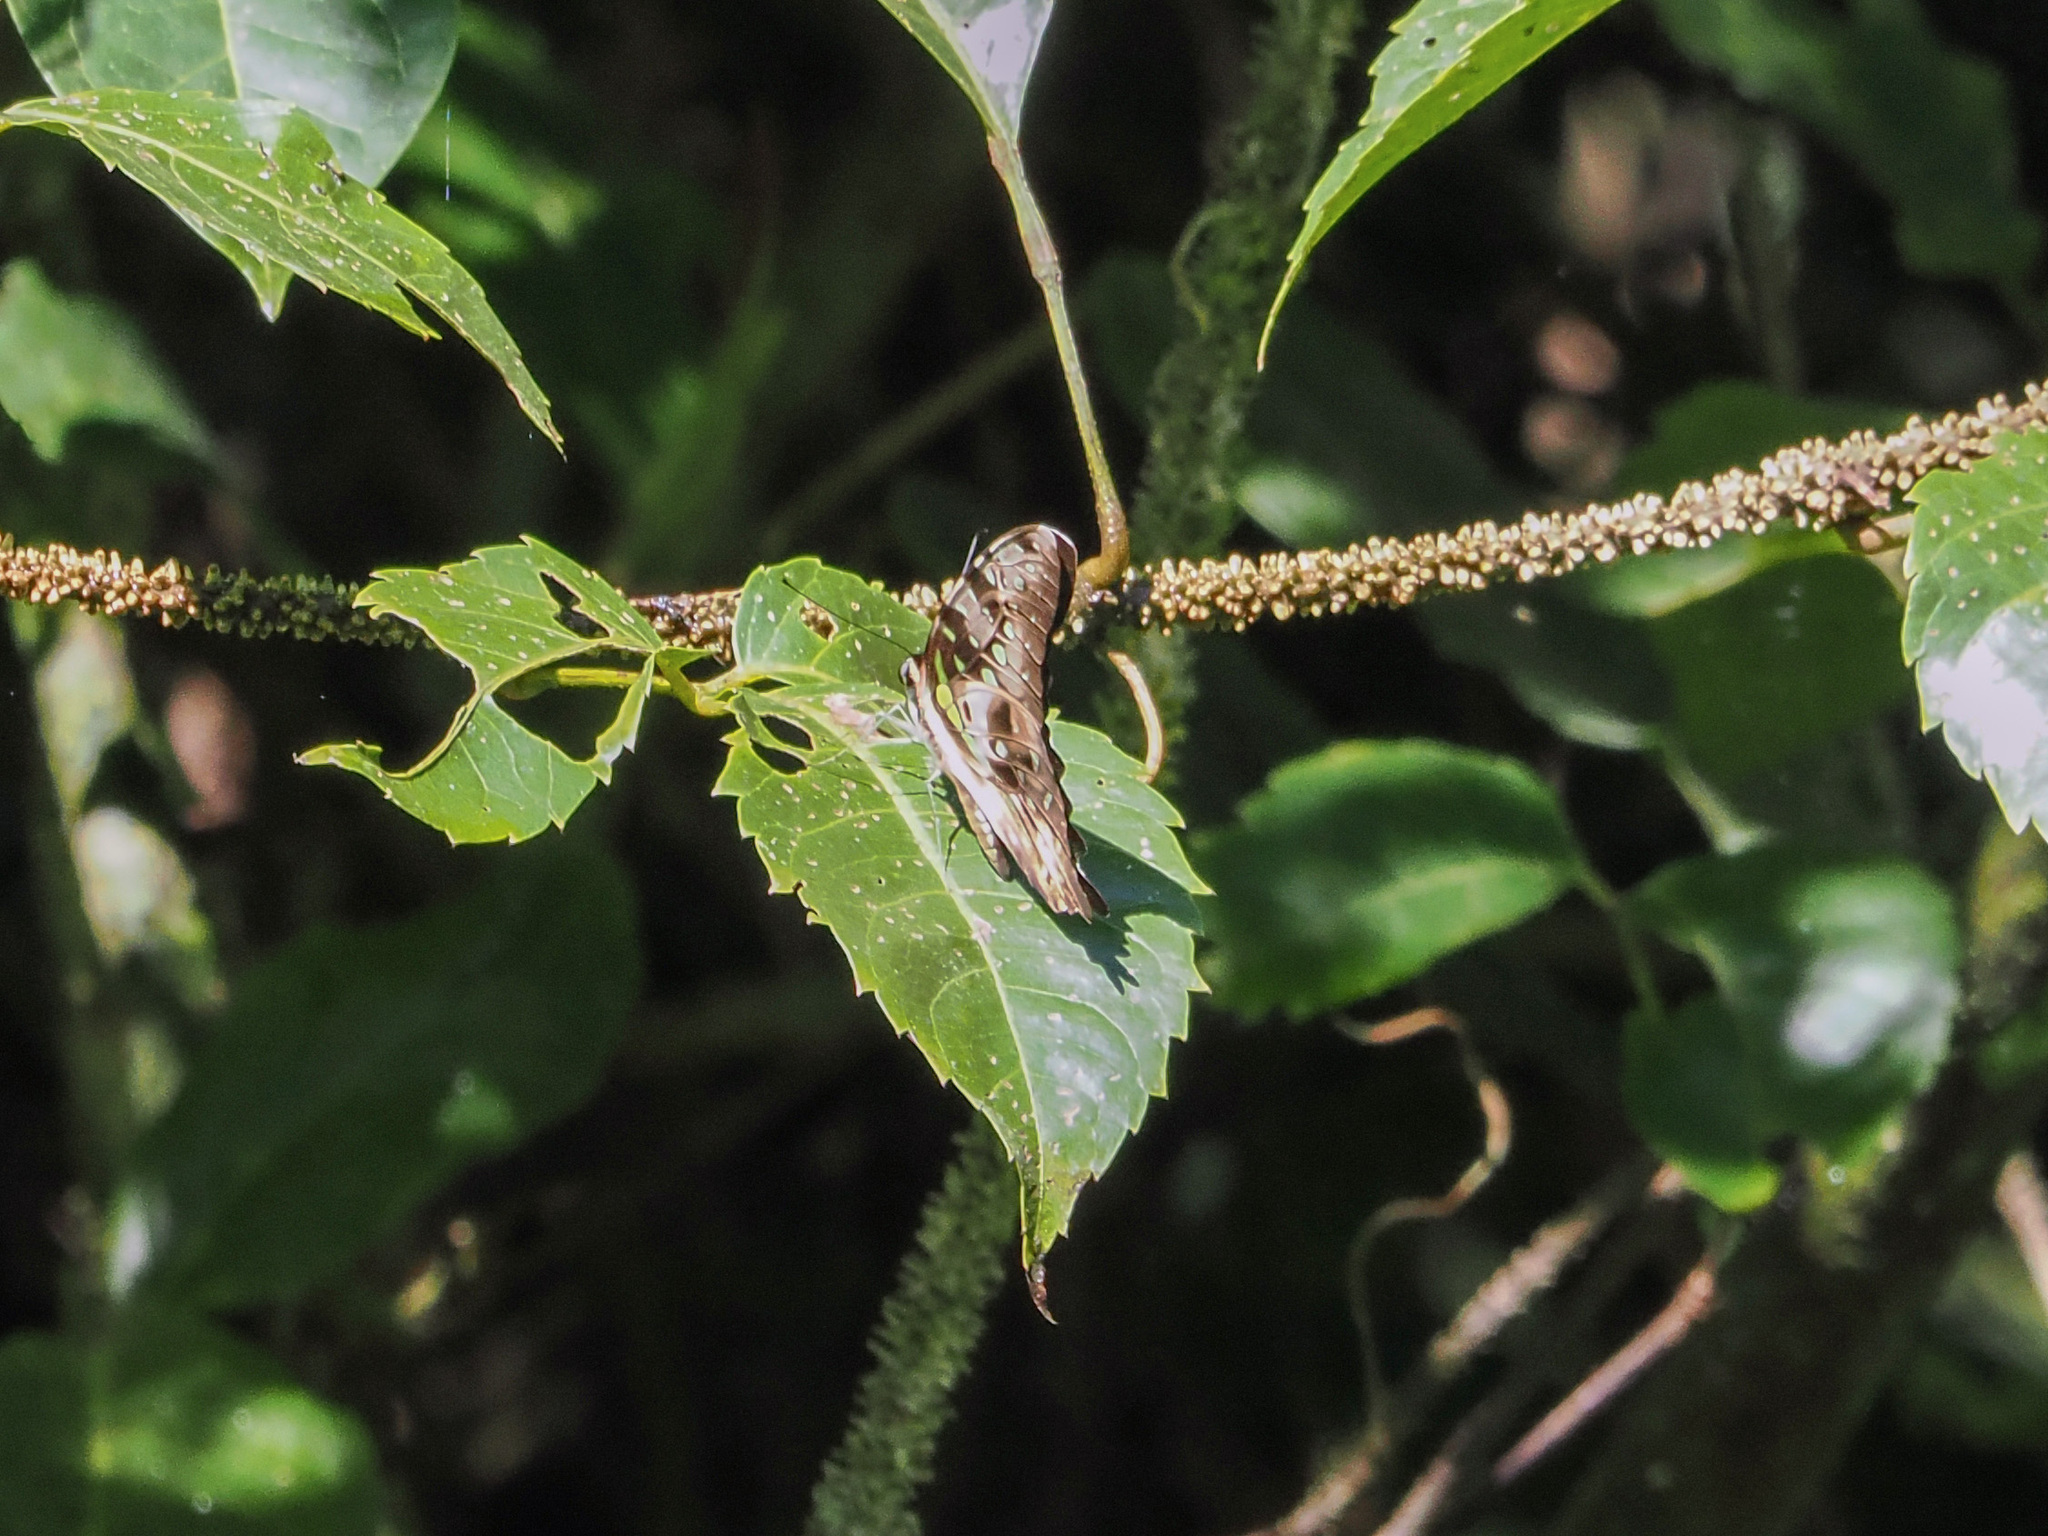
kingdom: Animalia
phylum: Arthropoda
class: Insecta
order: Lepidoptera
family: Papilionidae
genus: Graphium
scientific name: Graphium agamemnon
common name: Tailed jay
